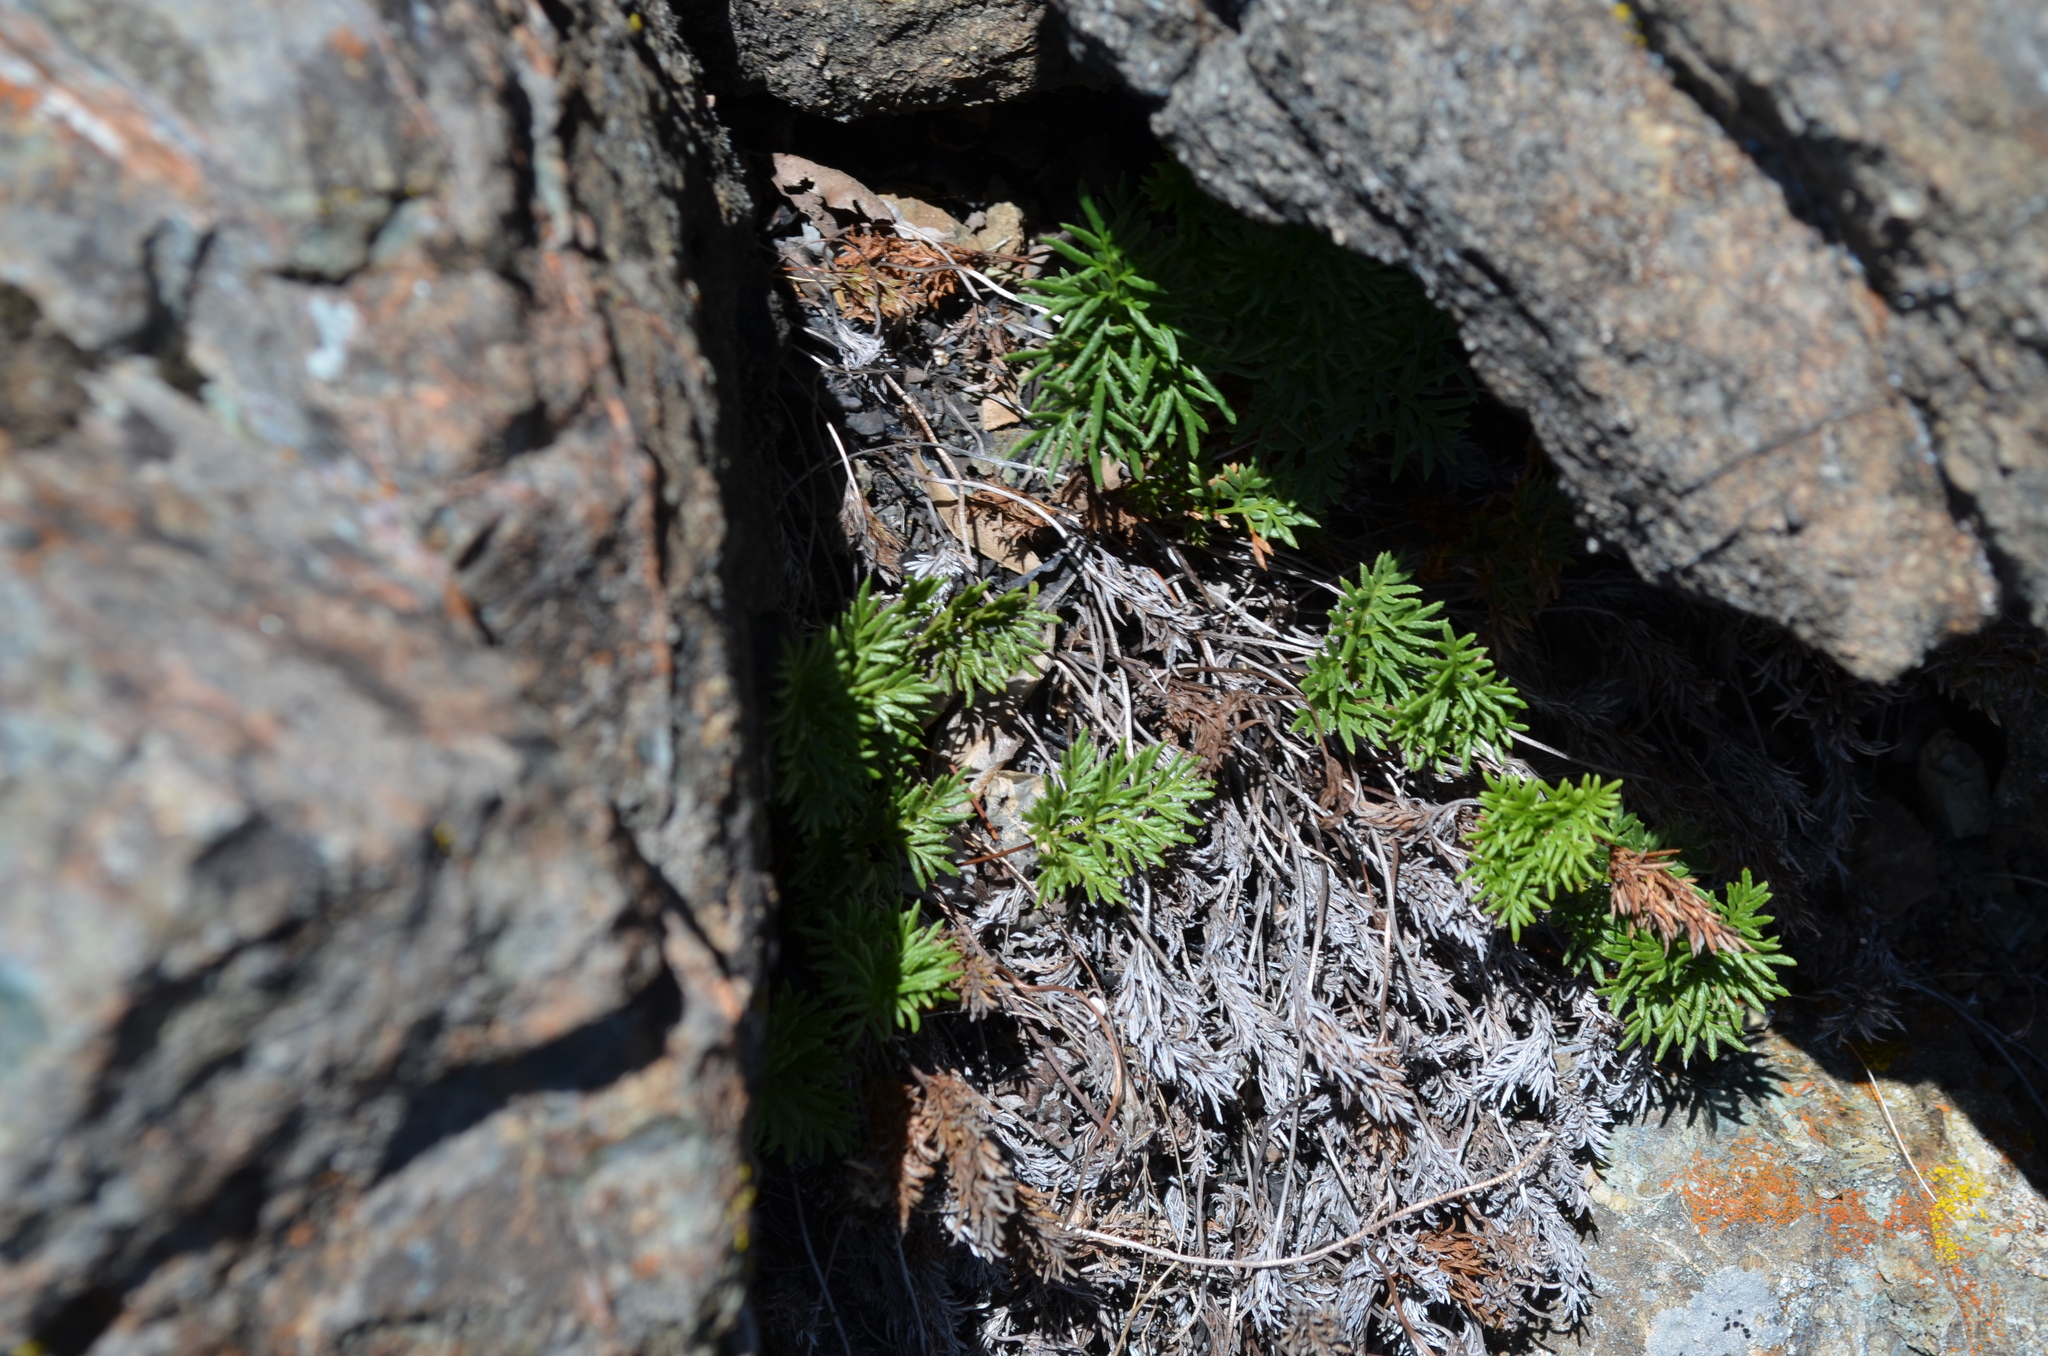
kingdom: Plantae
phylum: Tracheophyta
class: Polypodiopsida
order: Polypodiales
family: Pteridaceae
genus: Aspidotis
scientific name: Aspidotis densa
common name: Indian's dream
